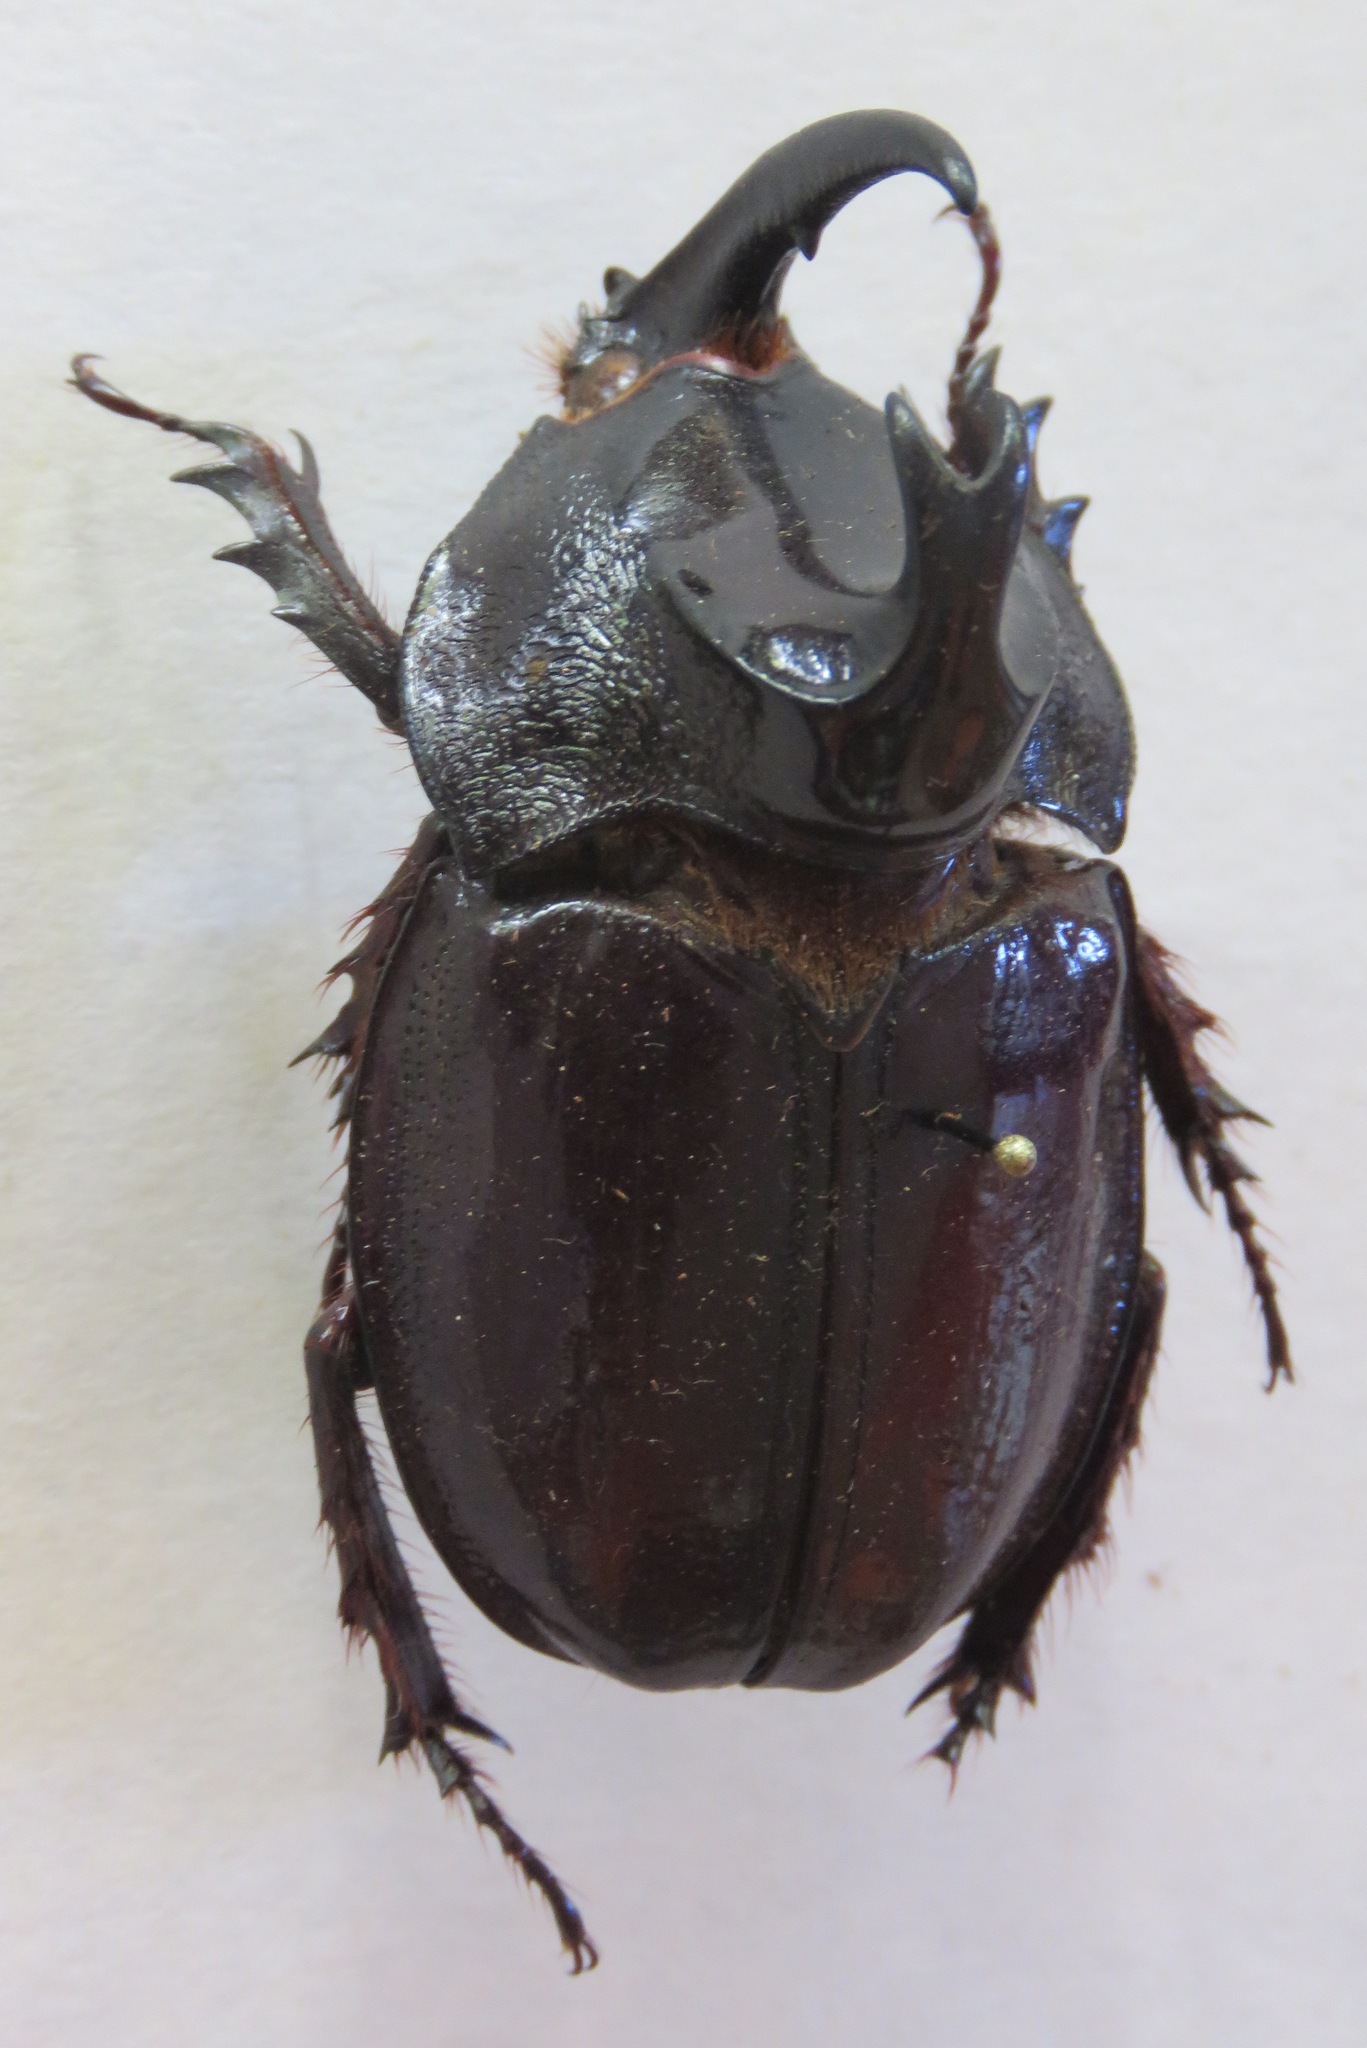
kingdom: Animalia
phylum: Arthropoda
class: Insecta
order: Coleoptera
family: Scarabaeidae
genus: Enema
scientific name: Enema pan
